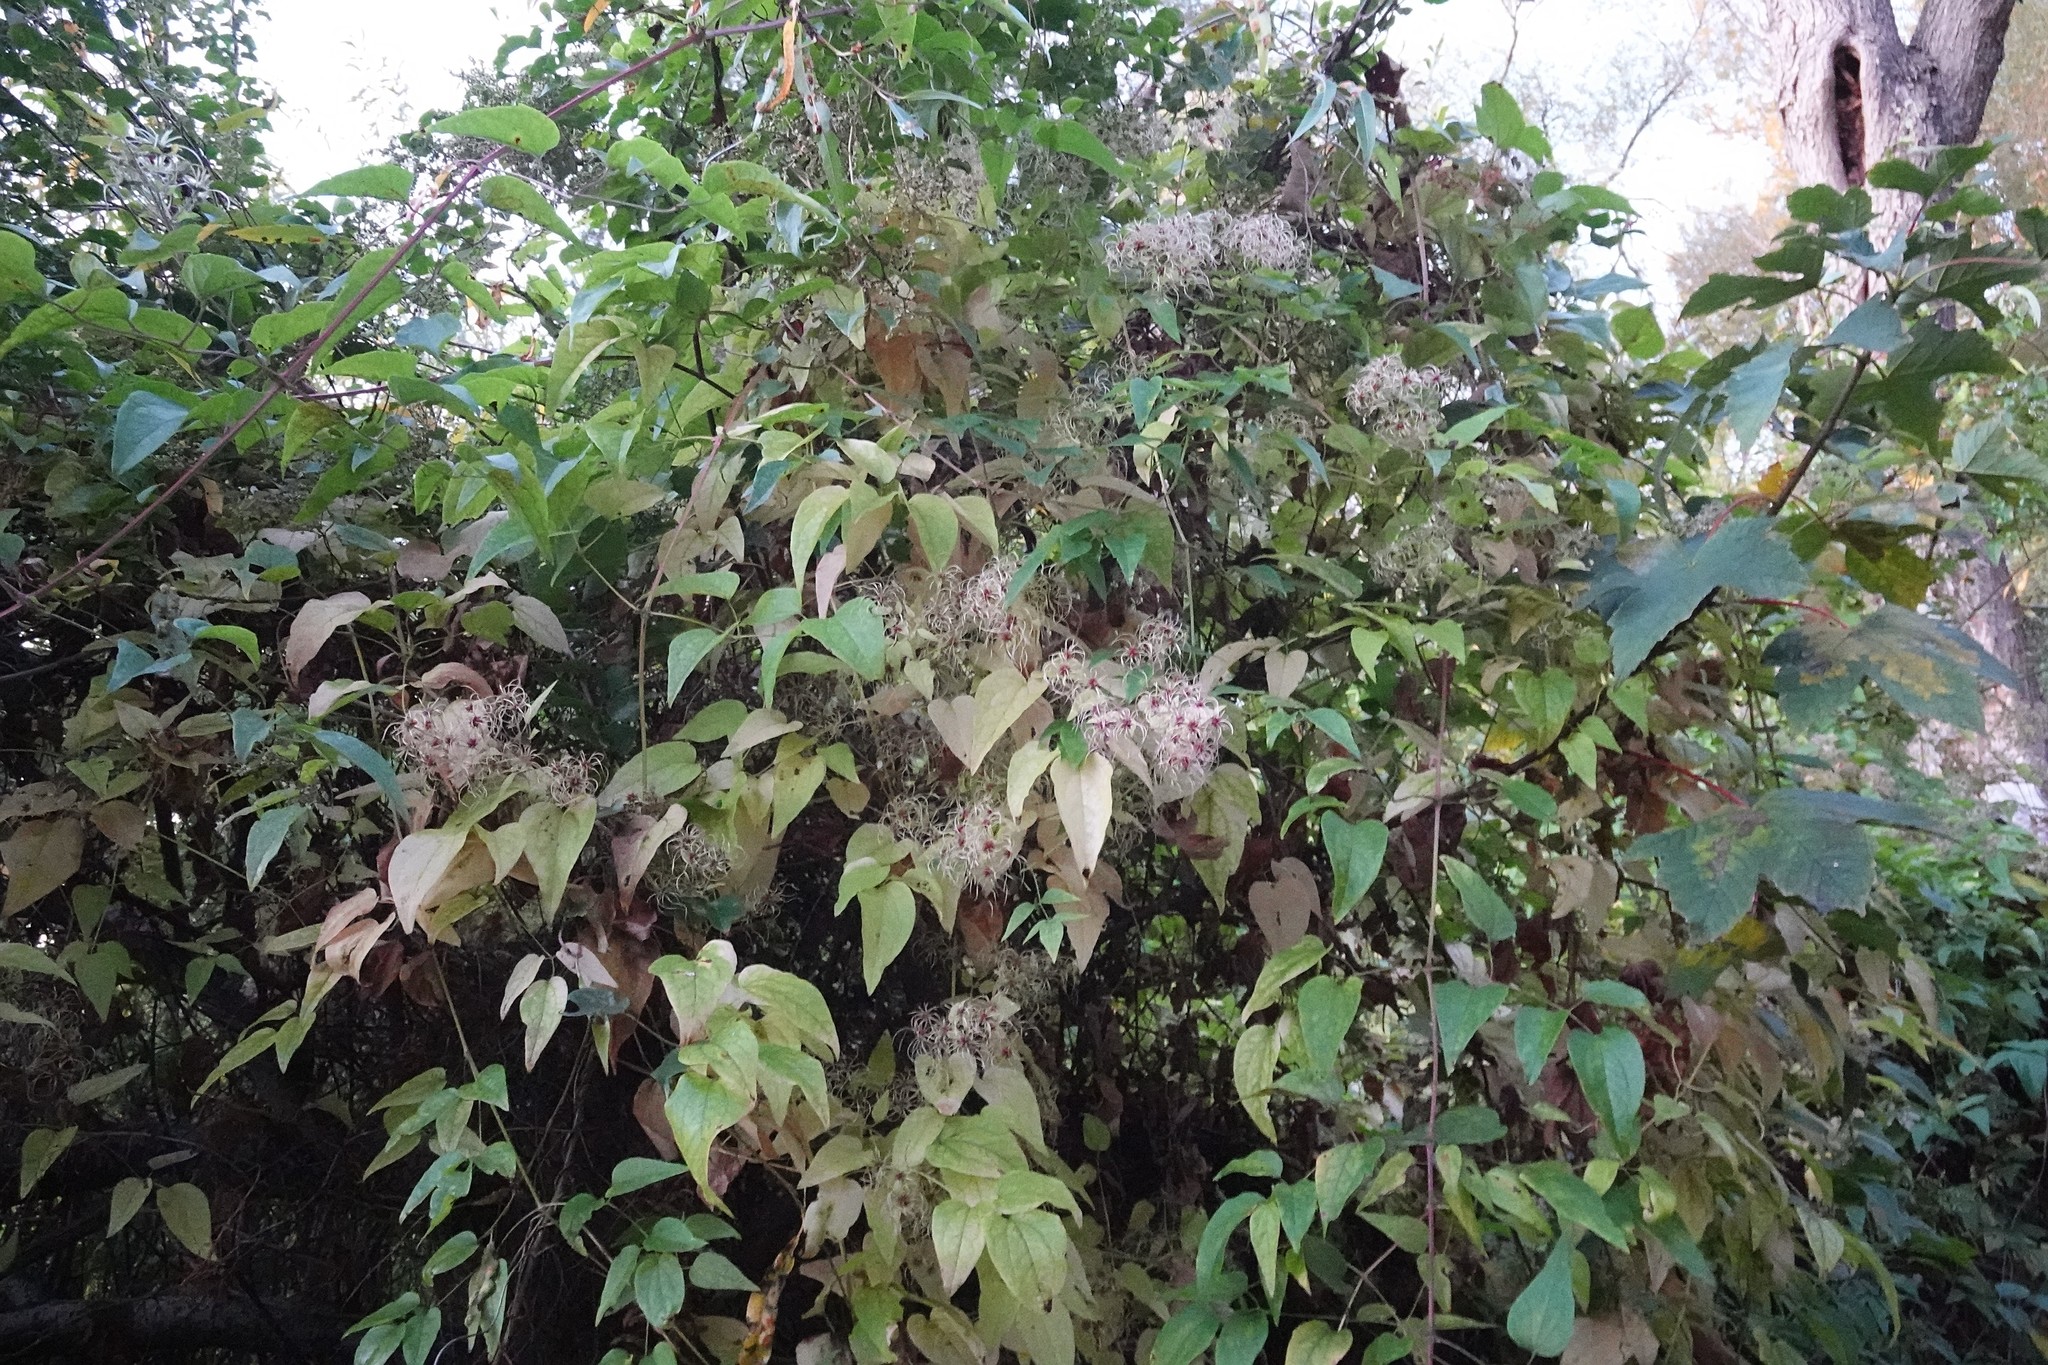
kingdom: Plantae
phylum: Tracheophyta
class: Magnoliopsida
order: Sapindales
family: Sapindaceae
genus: Acer
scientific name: Acer pseudoplatanus
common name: Sycamore
